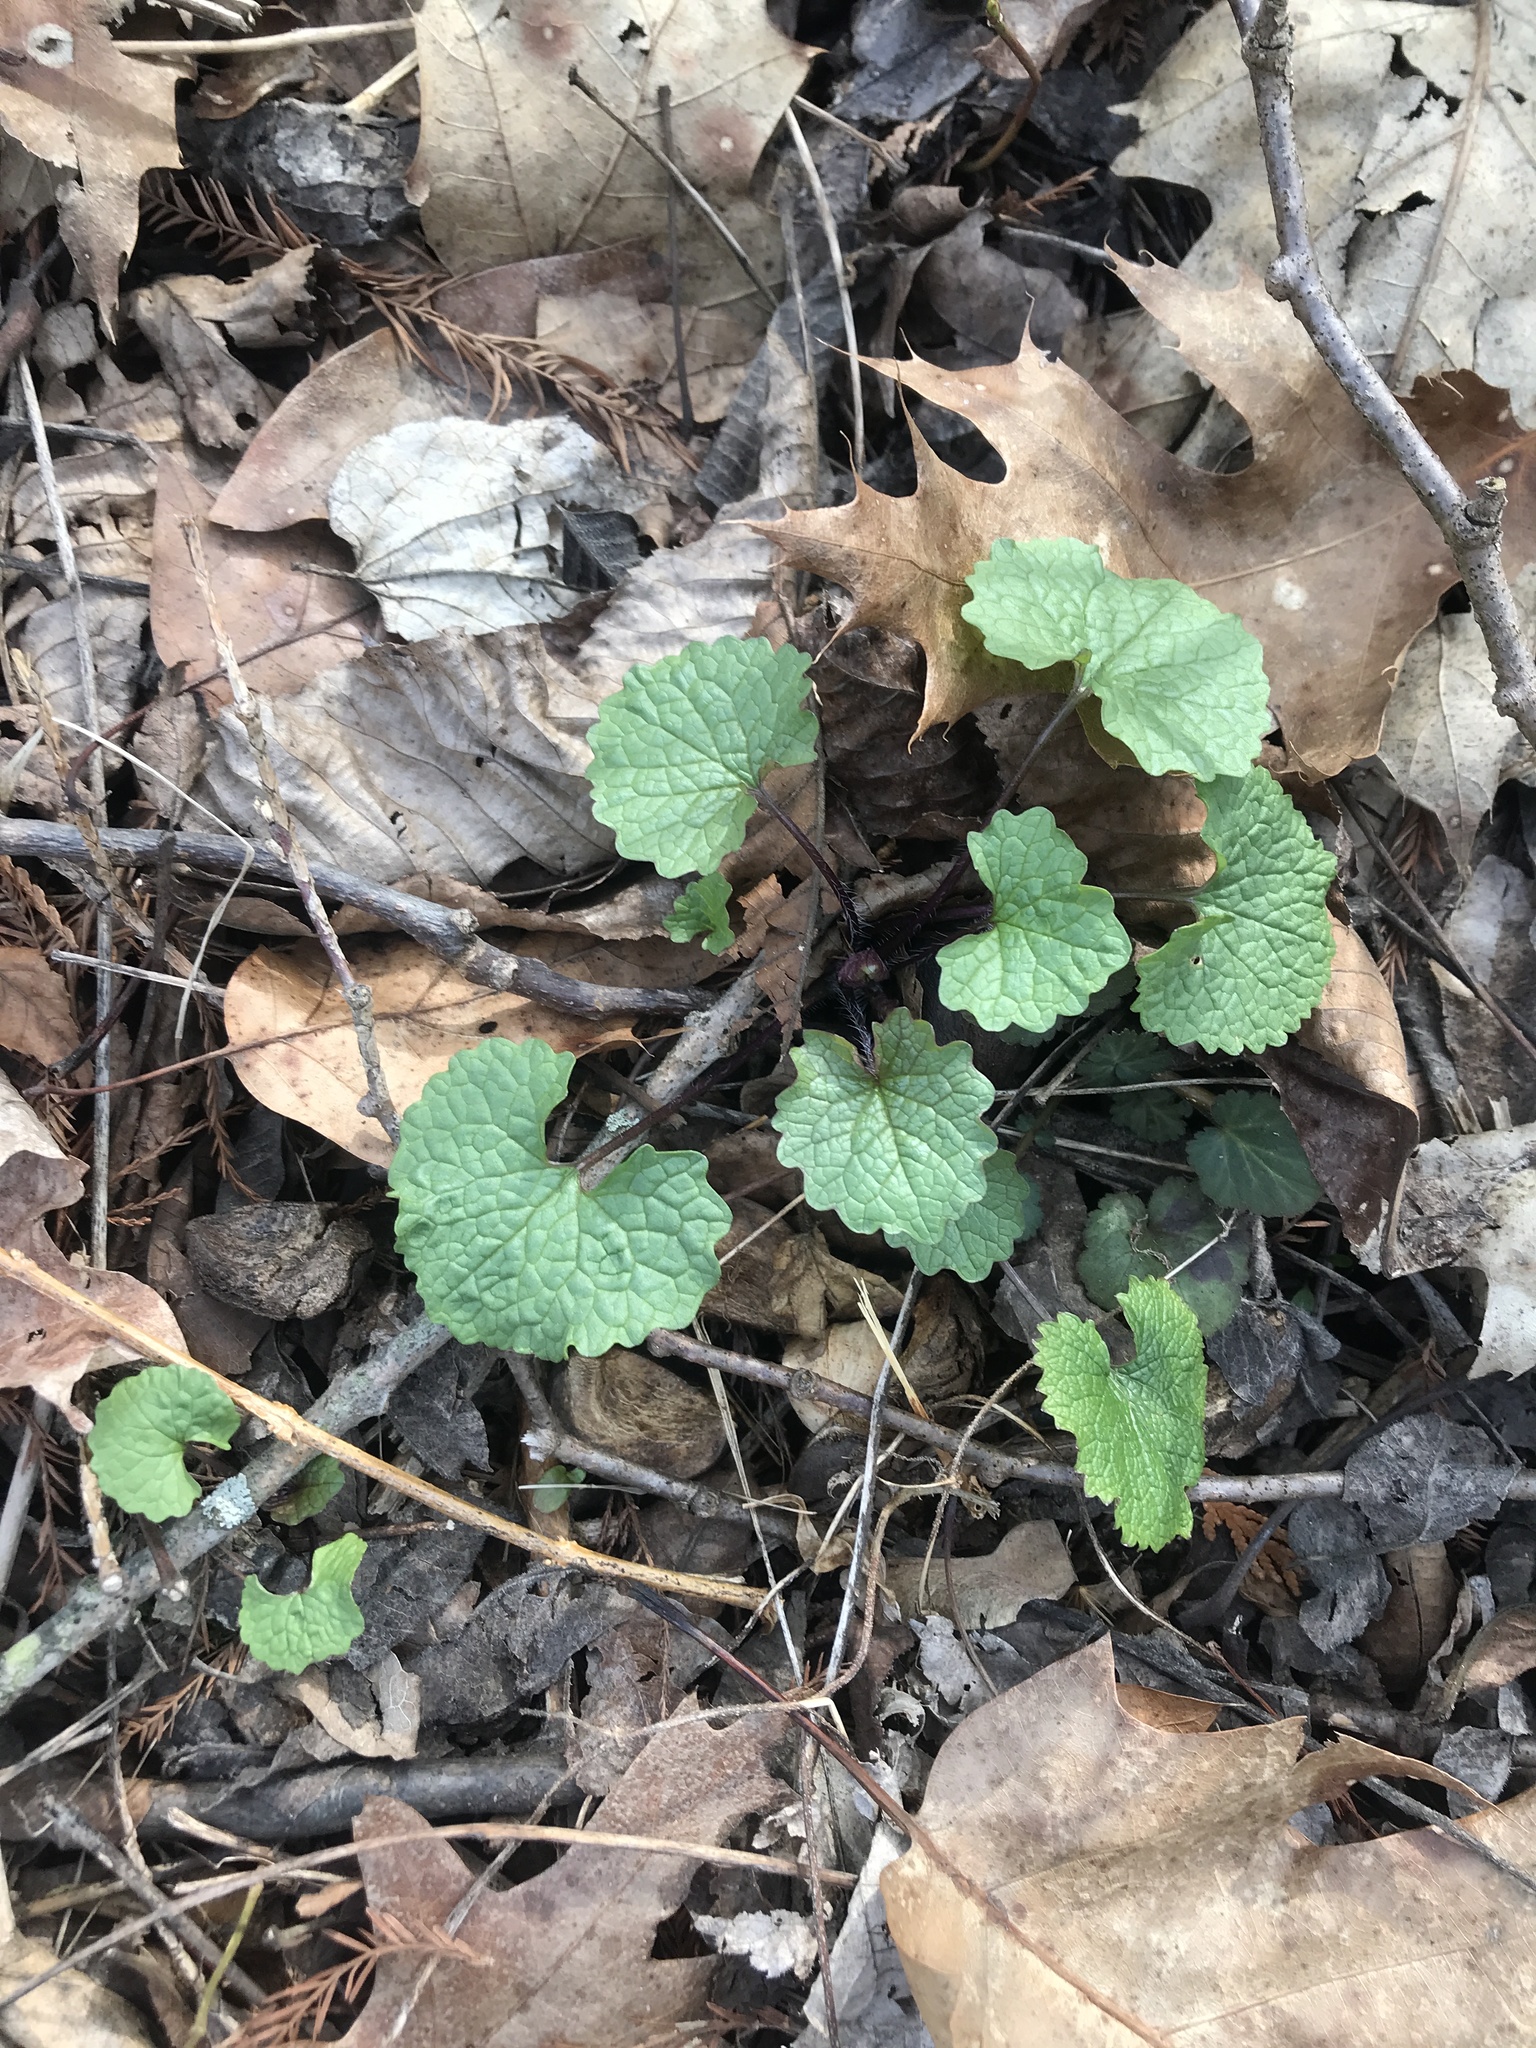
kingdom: Plantae
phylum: Tracheophyta
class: Magnoliopsida
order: Brassicales
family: Brassicaceae
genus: Alliaria
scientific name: Alliaria petiolata
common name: Garlic mustard
